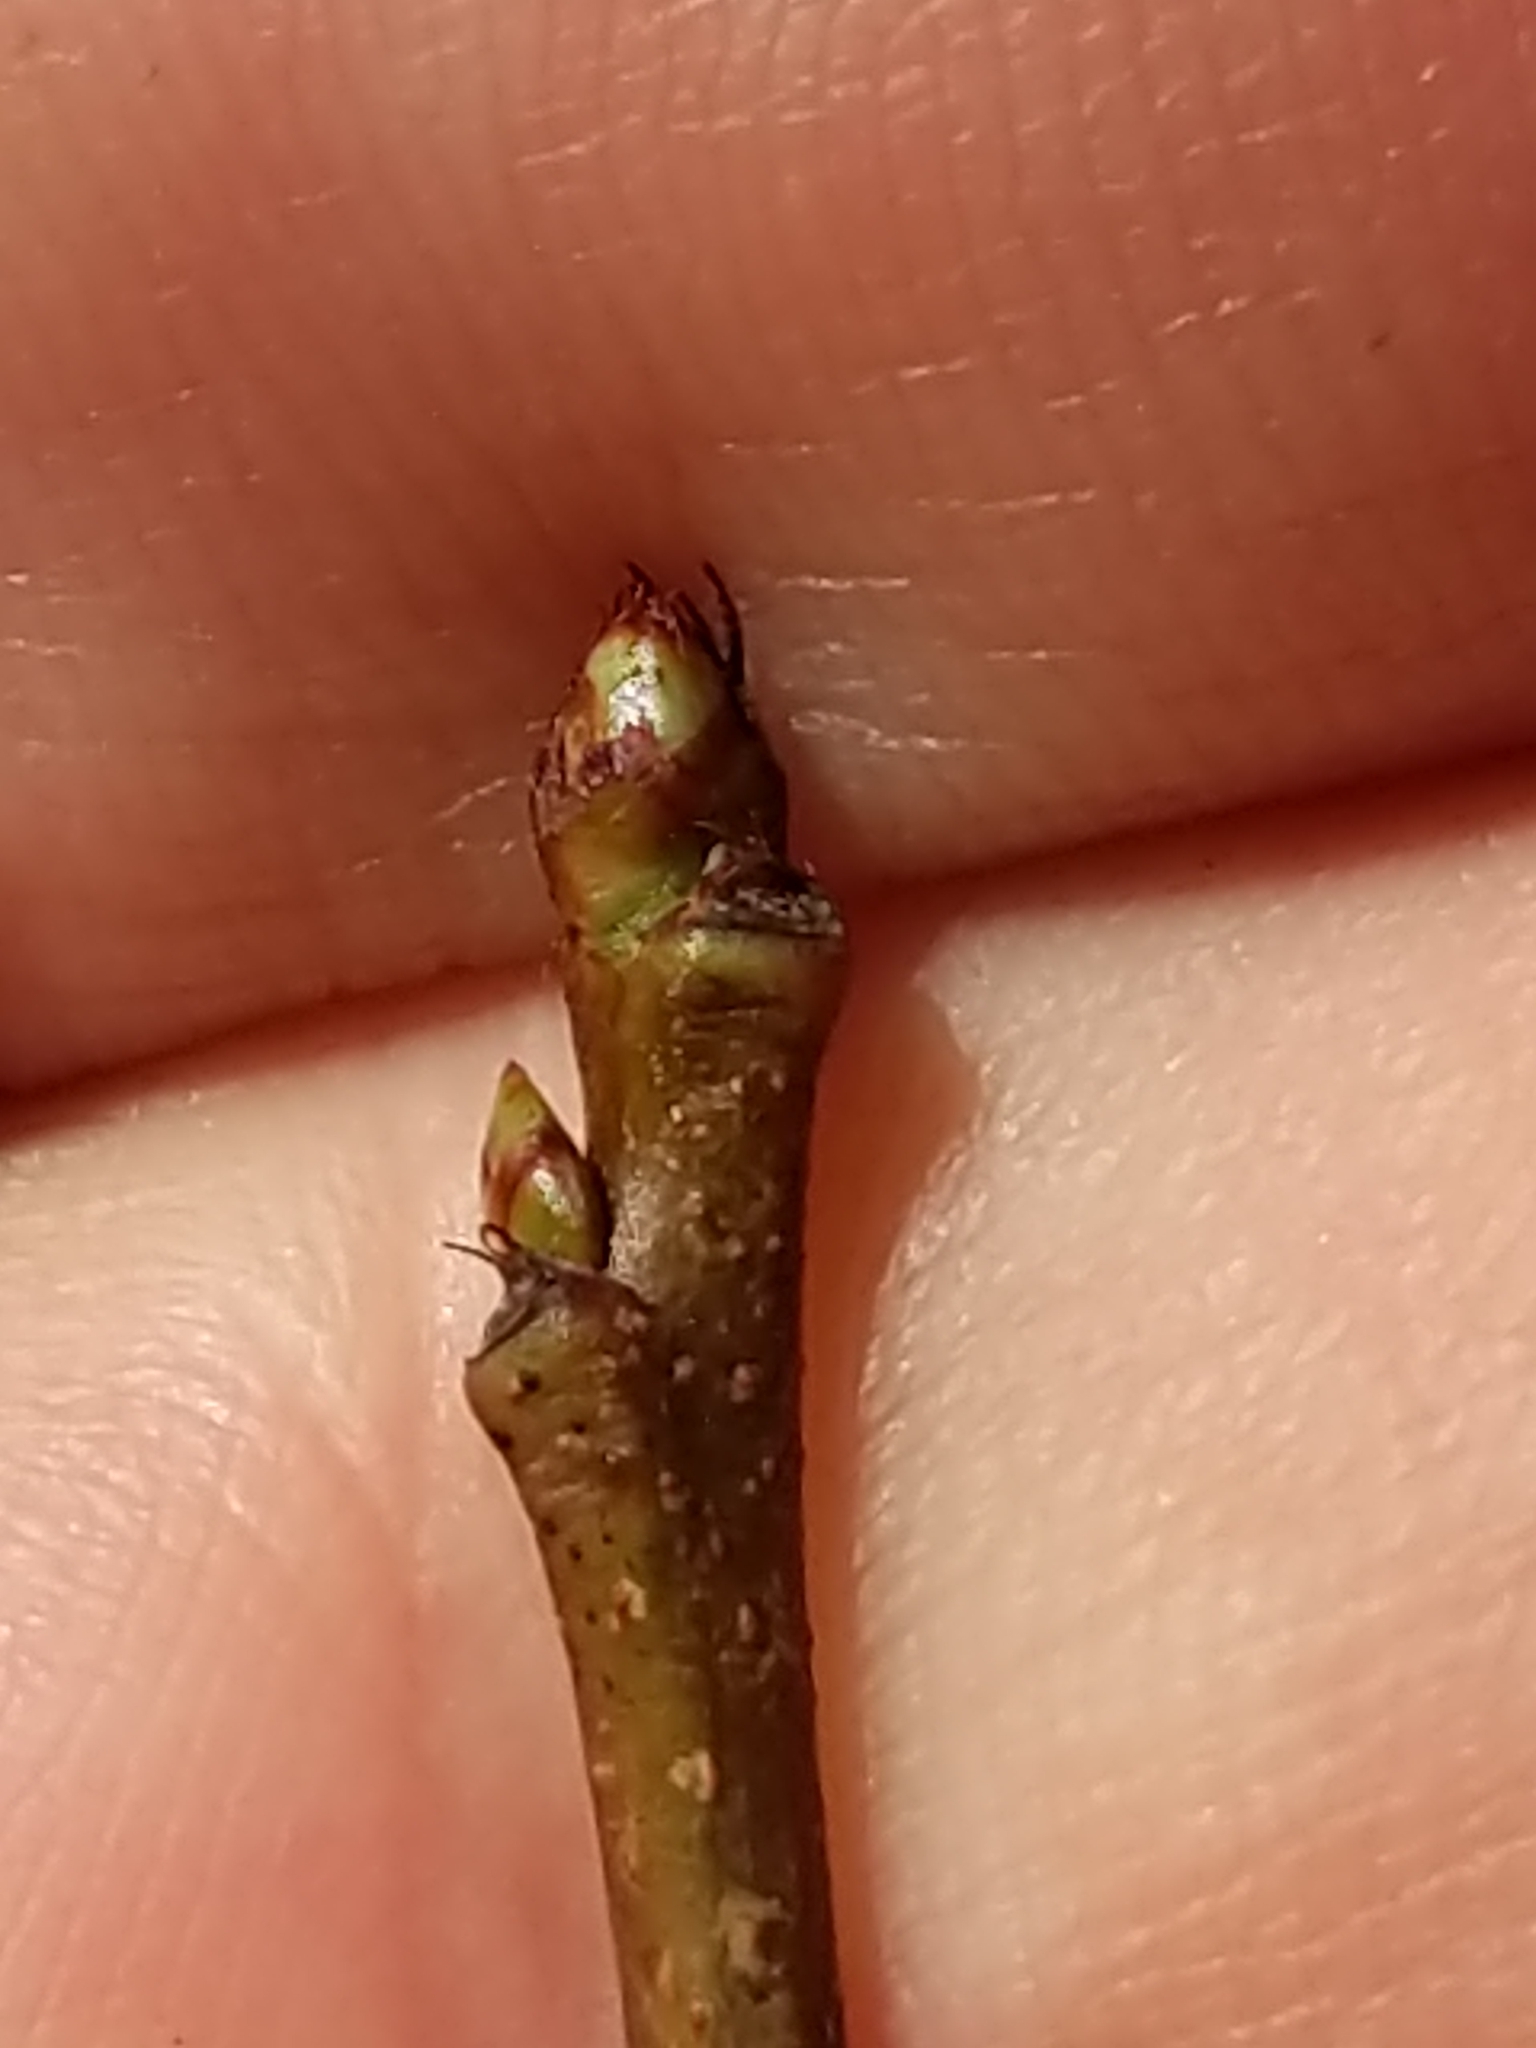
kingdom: Plantae
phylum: Tracheophyta
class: Magnoliopsida
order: Rosales
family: Rosaceae
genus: Prunus
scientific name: Prunus serotina
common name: Black cherry
